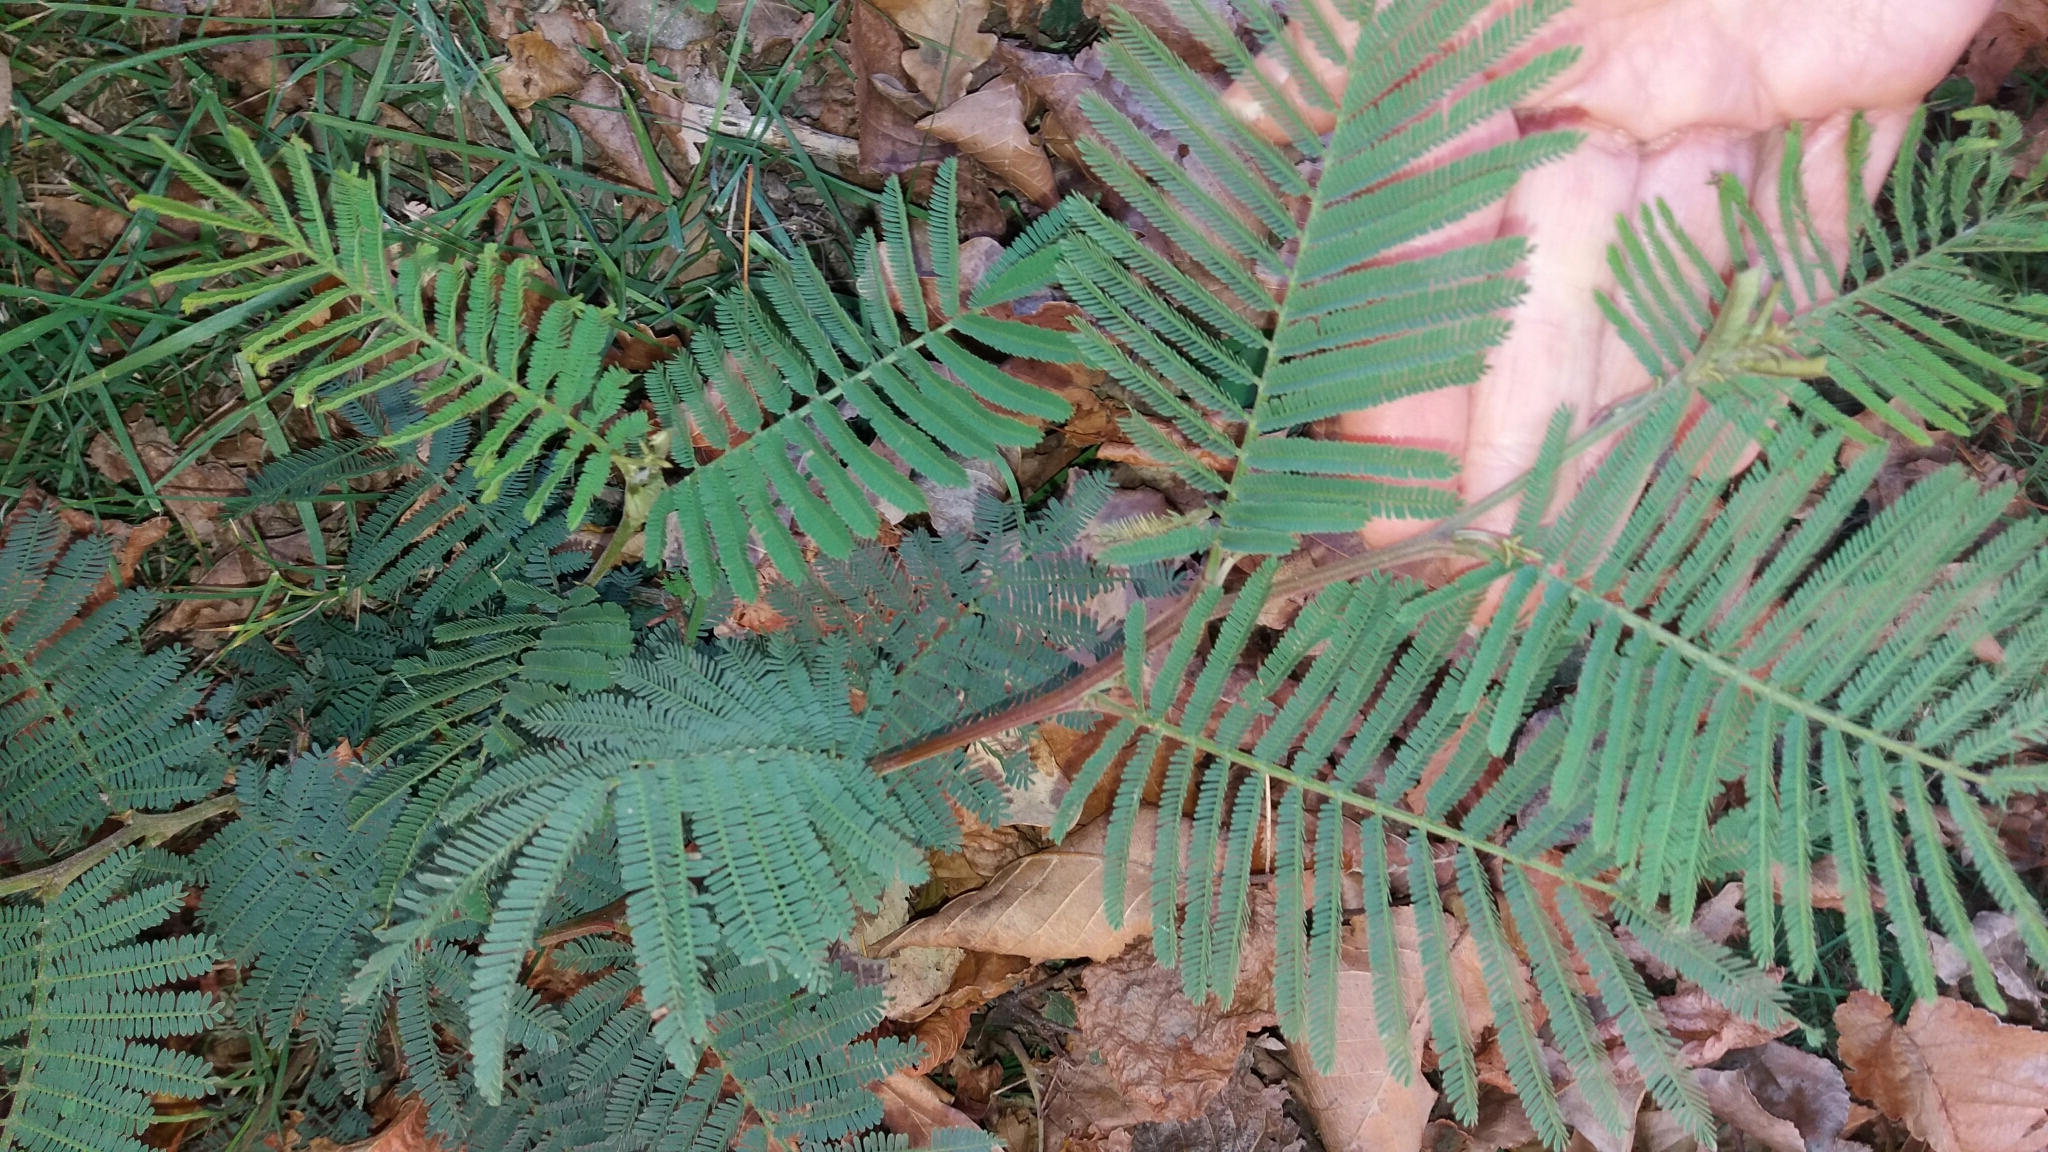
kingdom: Plantae
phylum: Tracheophyta
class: Magnoliopsida
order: Fabales
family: Fabaceae
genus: Acacia
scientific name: Acacia dealbata
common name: Silver wattle
